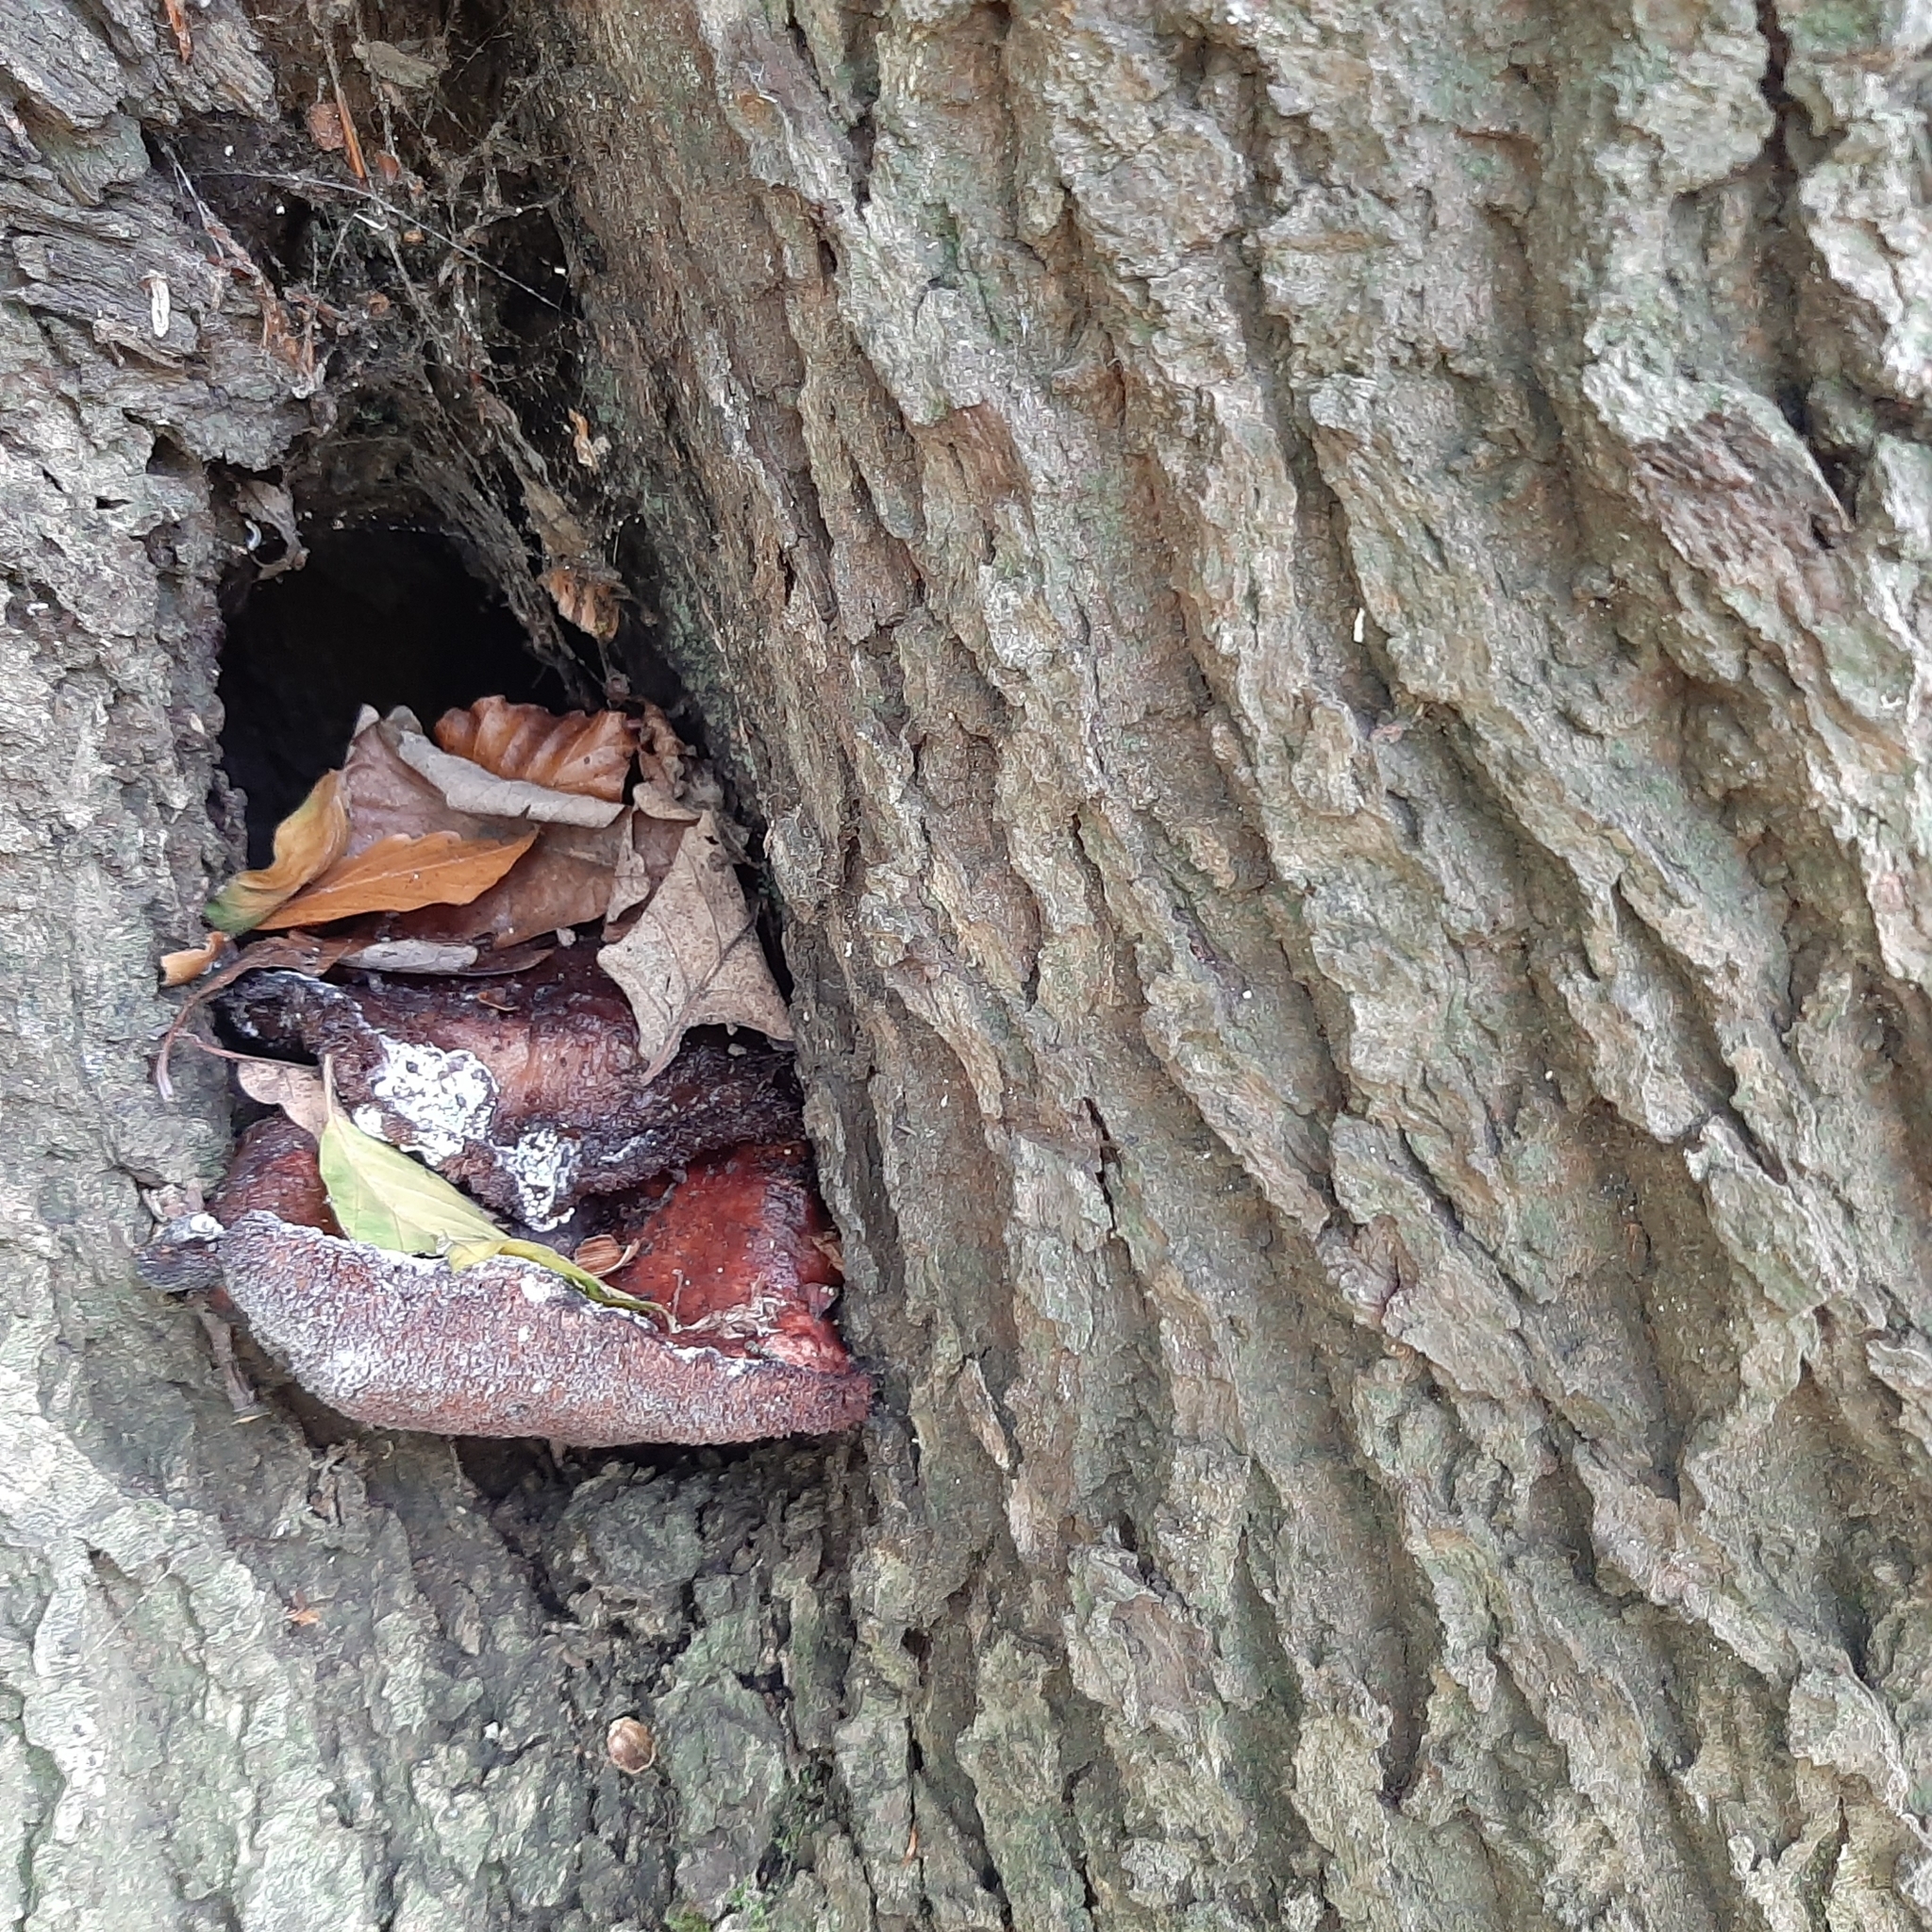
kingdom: Fungi
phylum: Basidiomycota
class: Agaricomycetes
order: Agaricales
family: Fistulinaceae
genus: Fistulina
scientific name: Fistulina hepatica
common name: Beef-steak fungus
